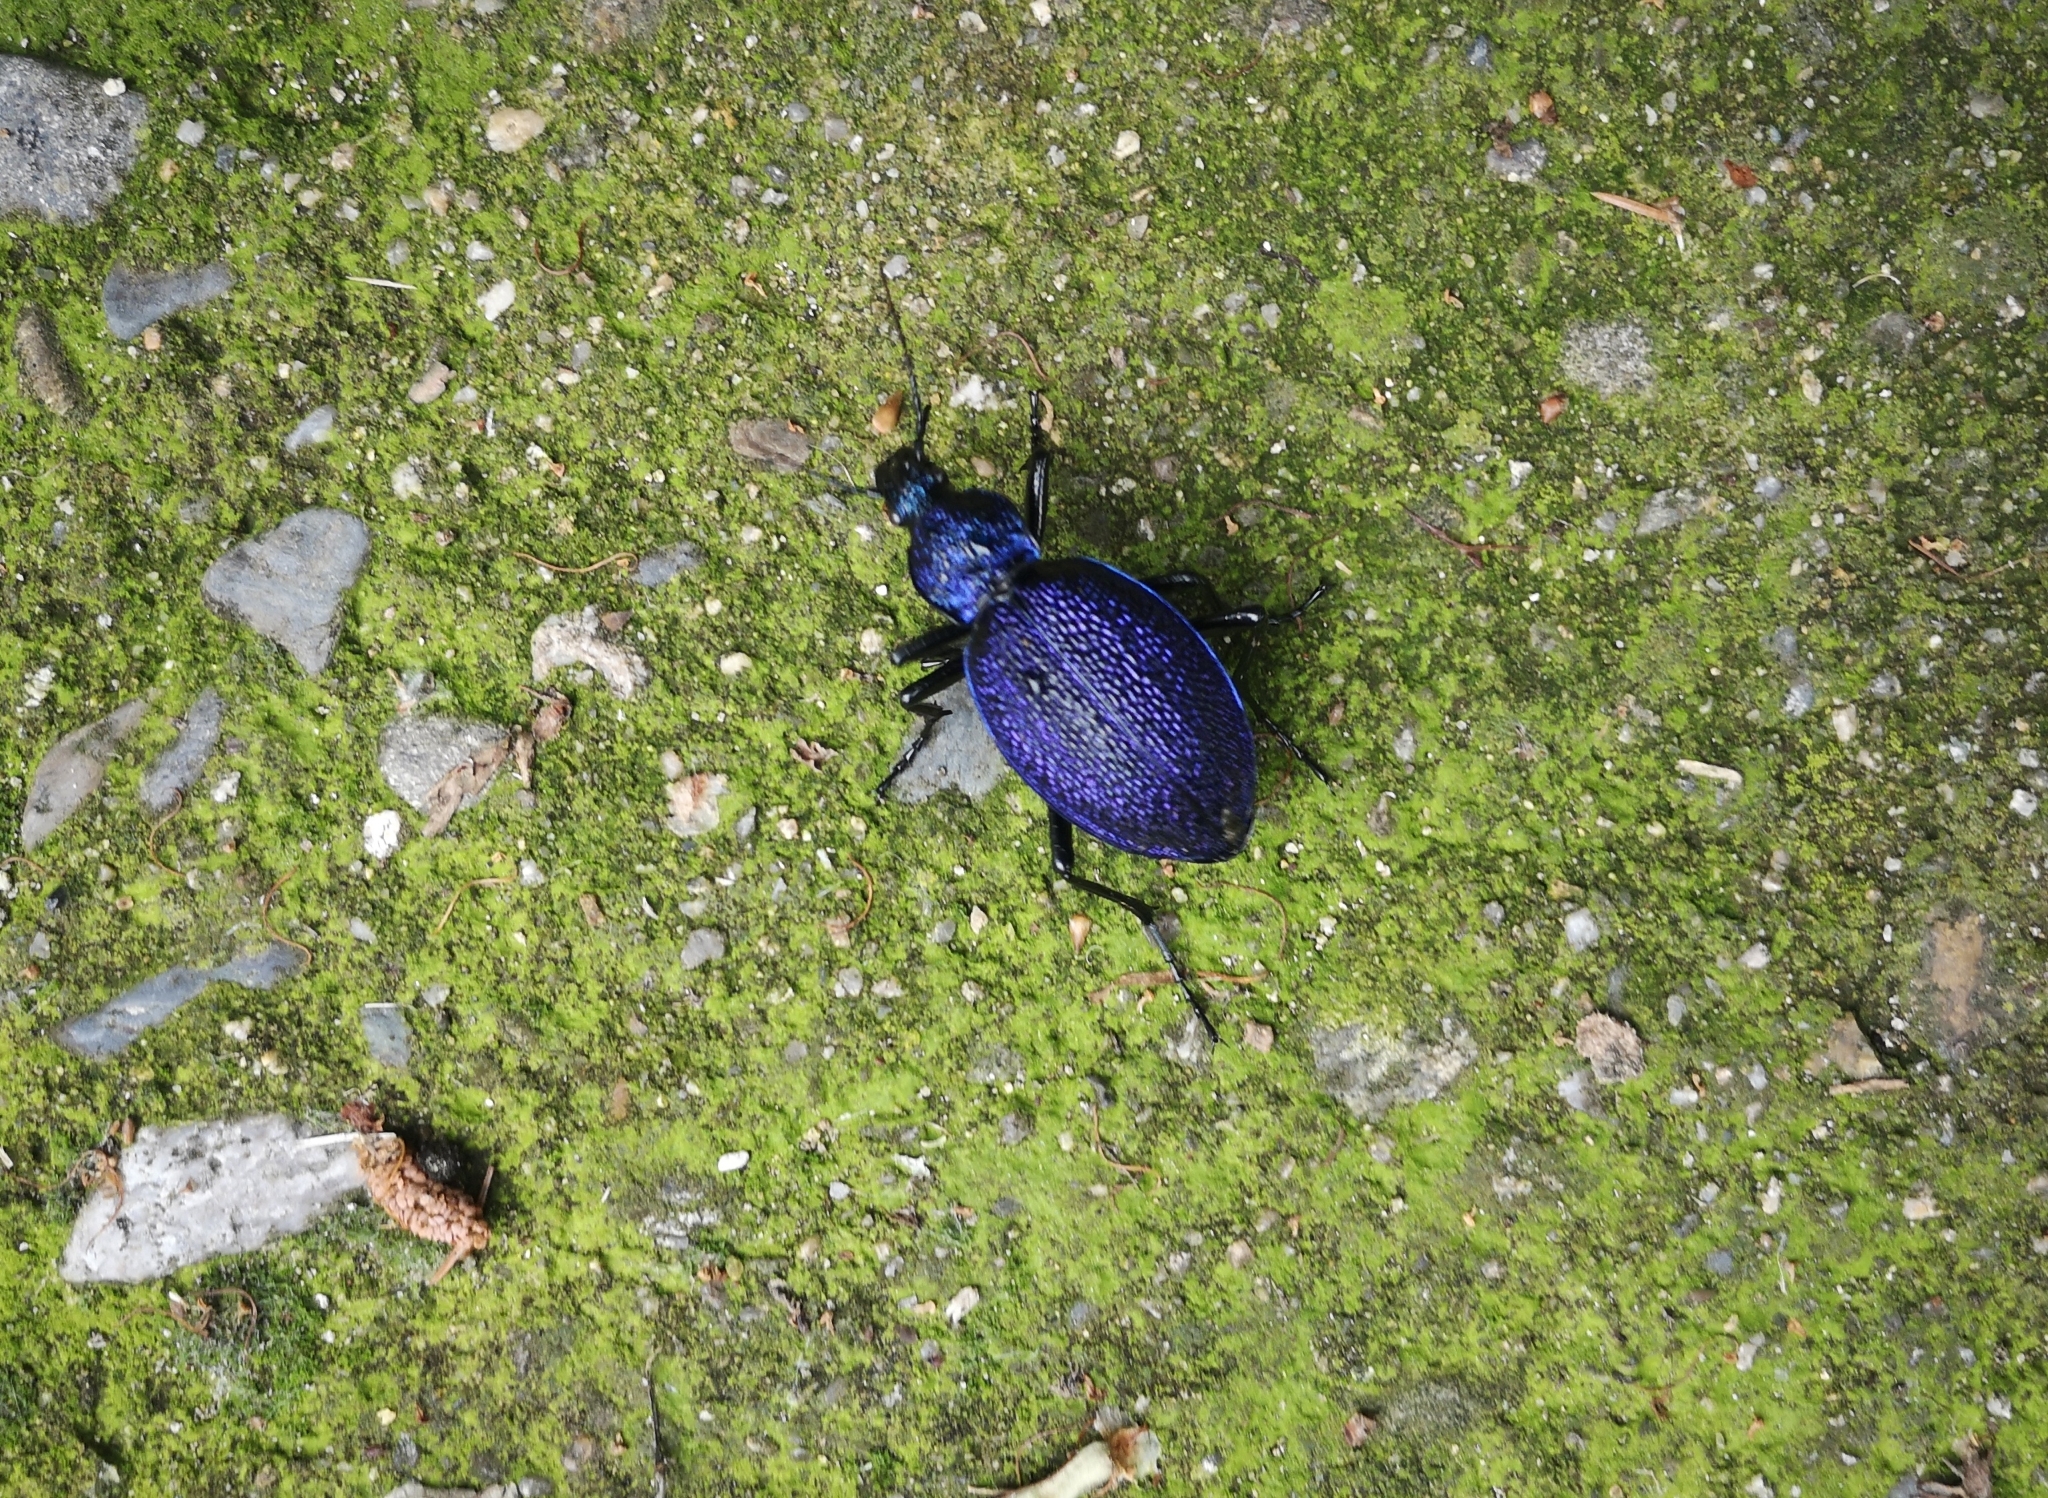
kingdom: Animalia
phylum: Arthropoda
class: Insecta
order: Coleoptera
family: Carabidae
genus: Carabus
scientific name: Carabus scabrosus
